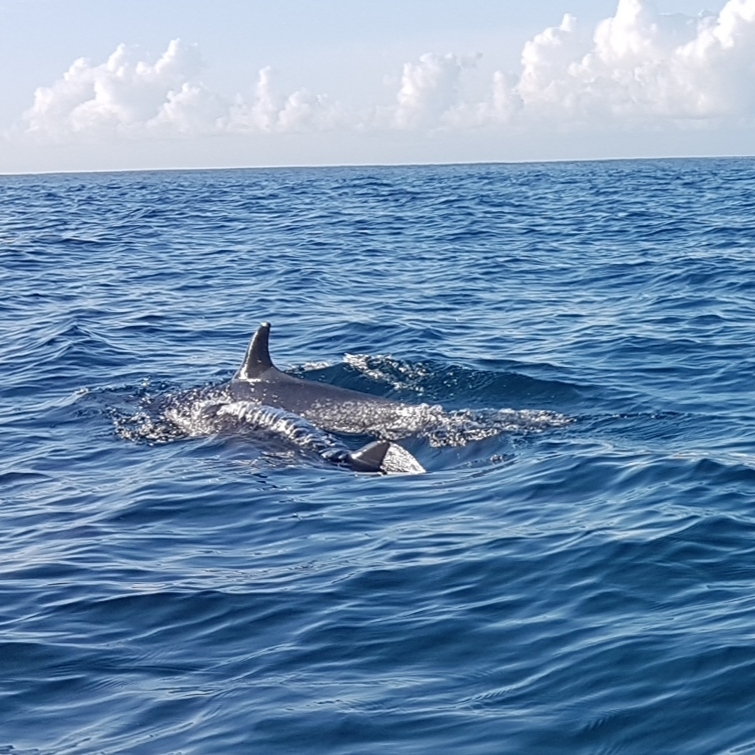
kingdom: Animalia
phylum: Chordata
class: Mammalia
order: Cetacea
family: Delphinidae
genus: Stenella
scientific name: Stenella attenuata
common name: Pantropical spotted dolphin
